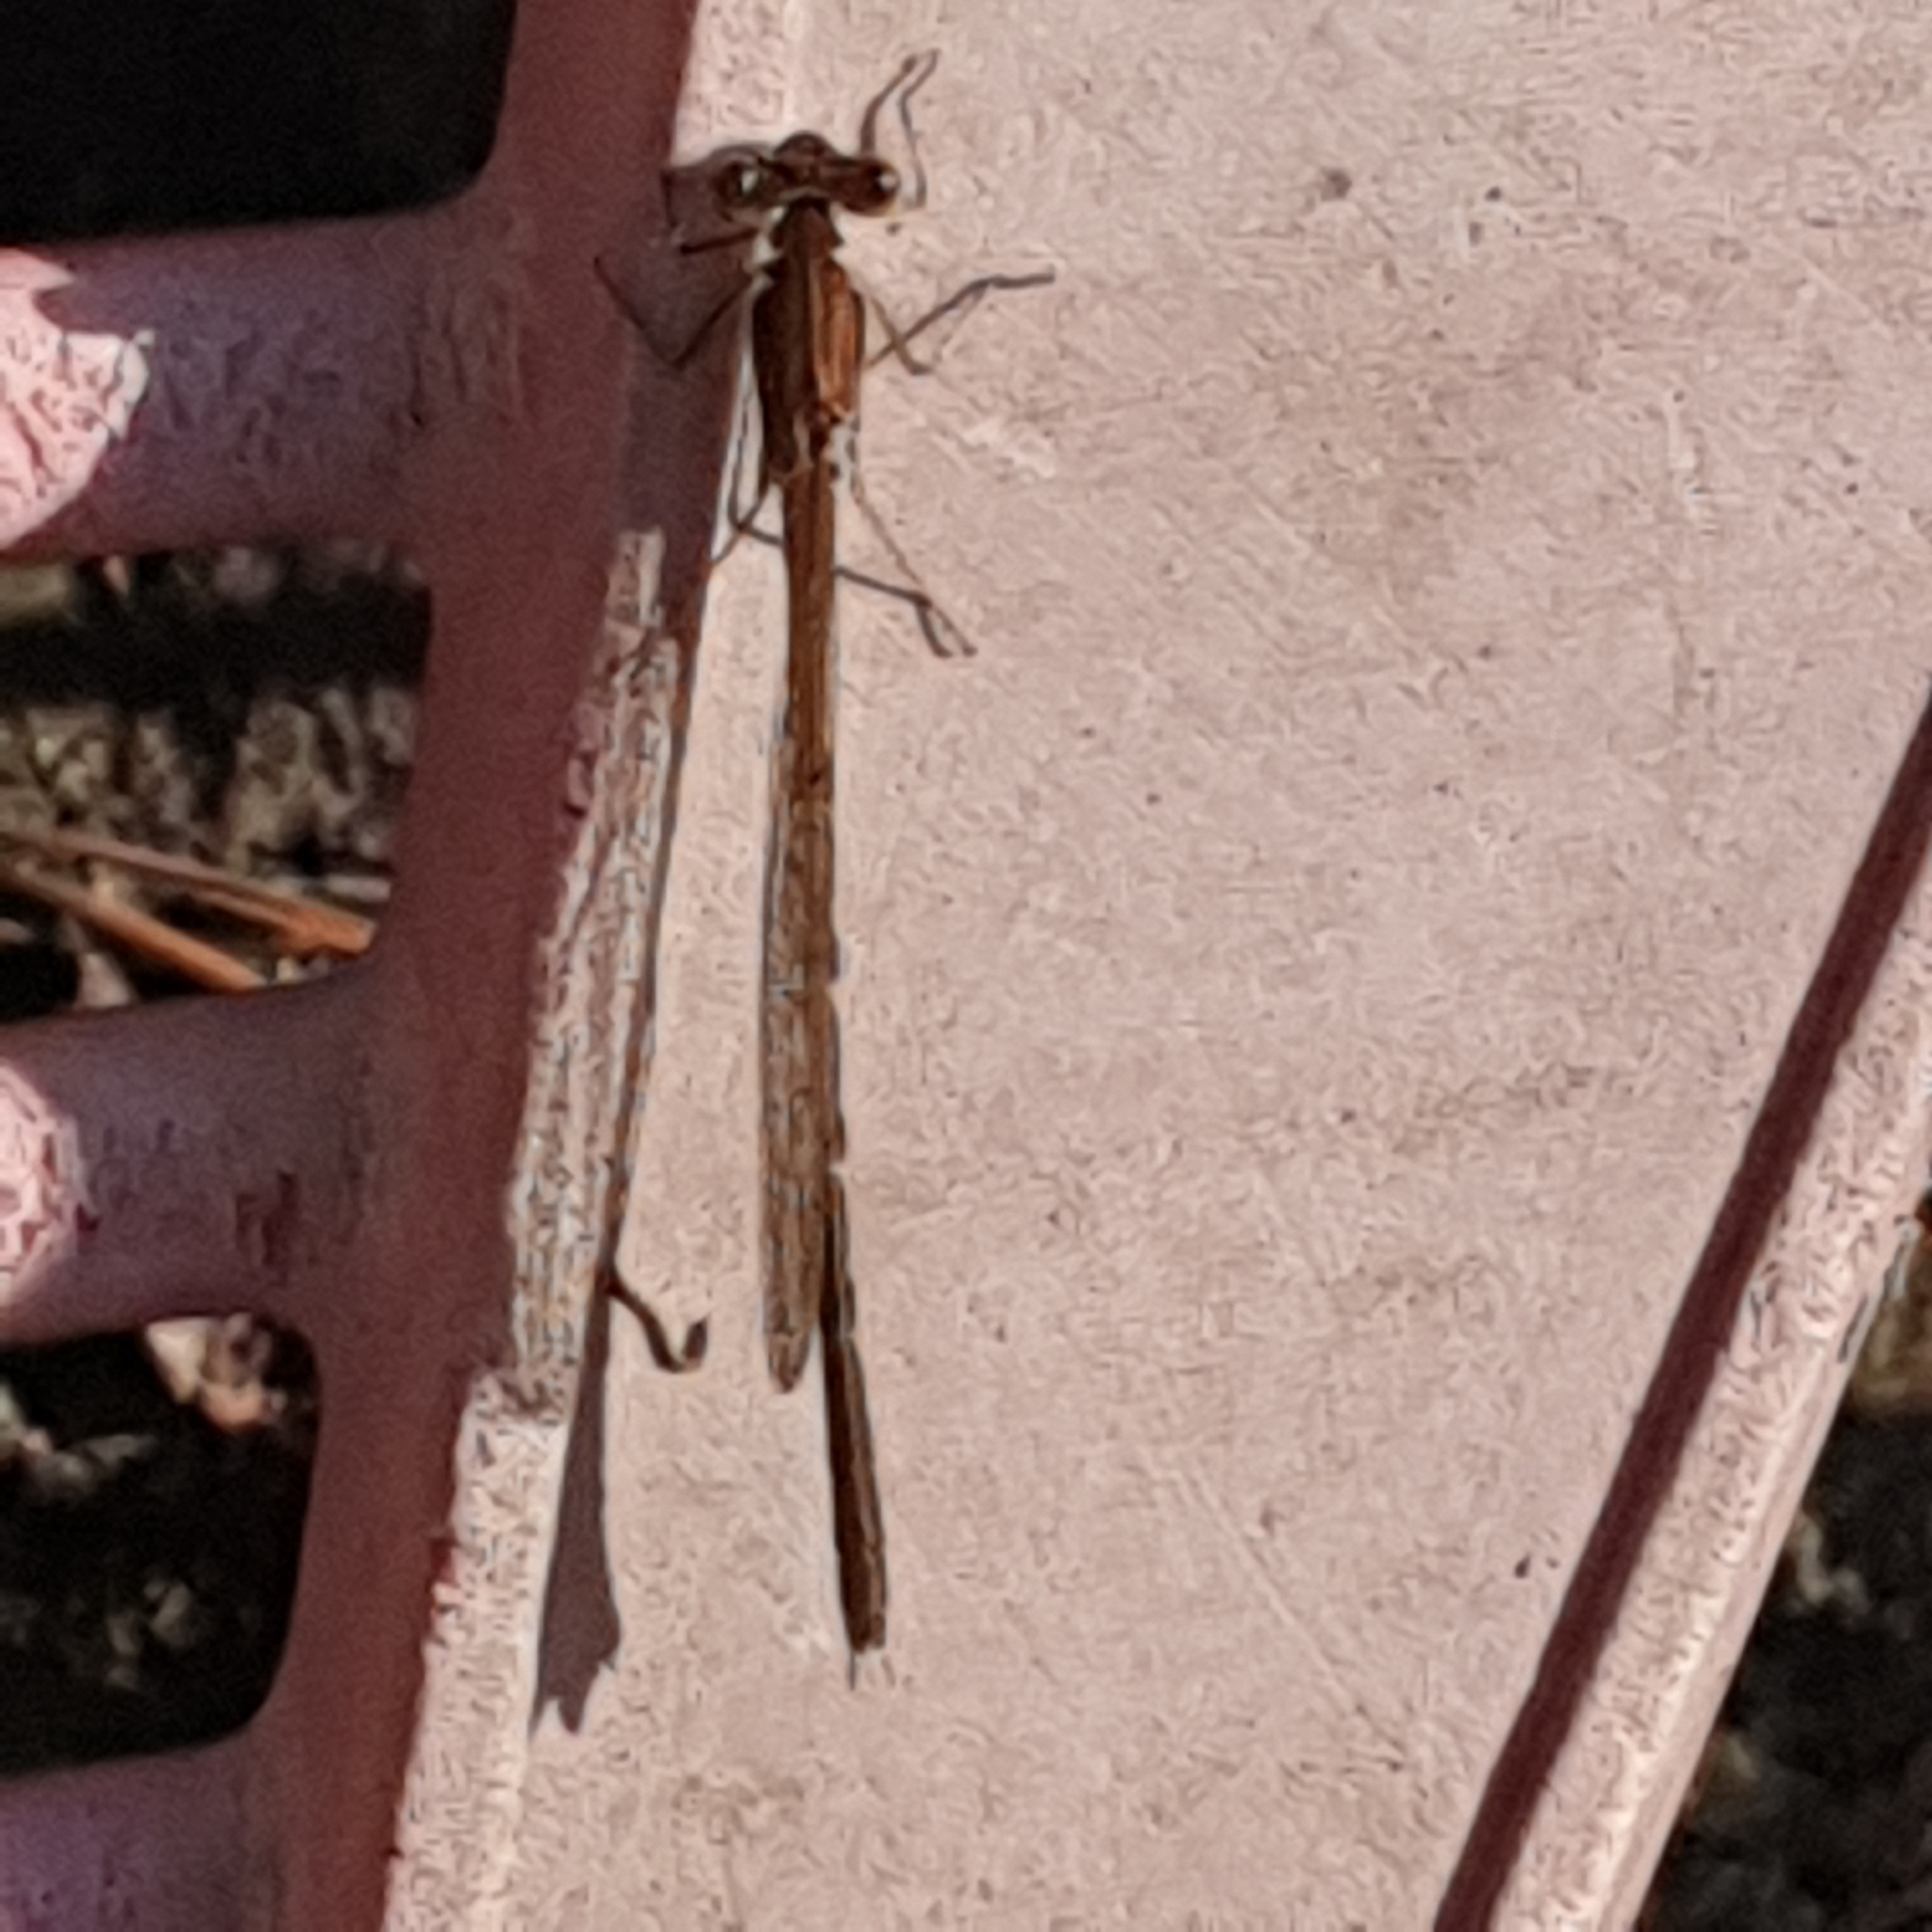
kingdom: Animalia
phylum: Arthropoda
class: Insecta
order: Odonata
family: Lestidae
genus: Sympecma
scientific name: Sympecma fusca
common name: Common winter damsel
